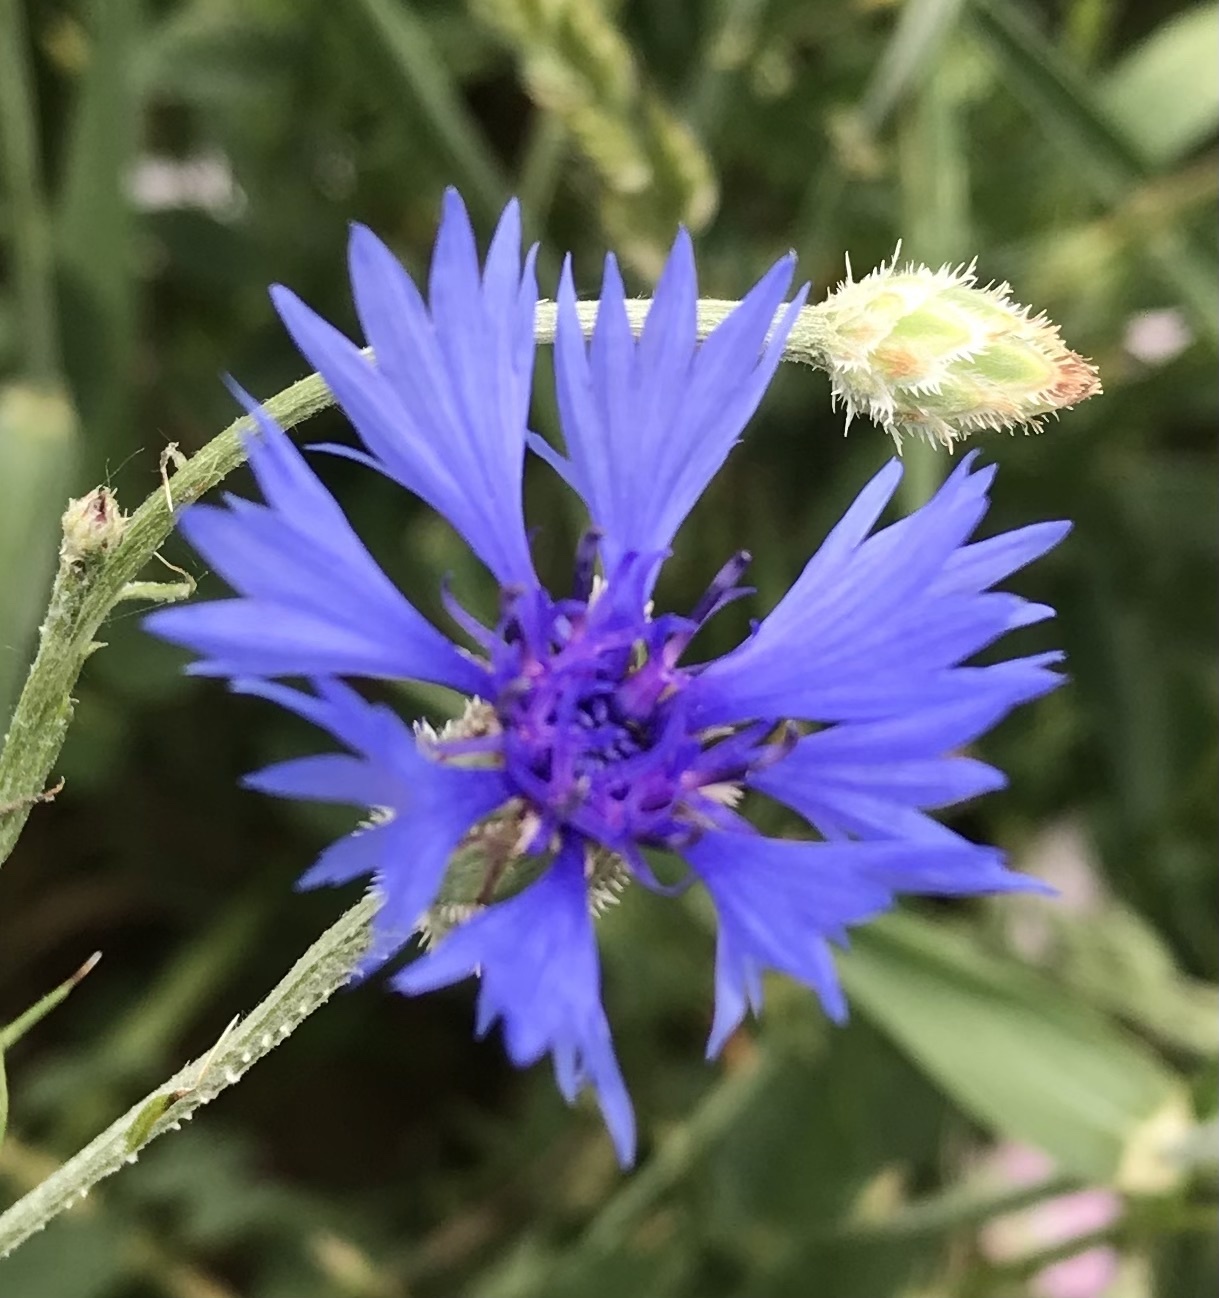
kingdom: Plantae
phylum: Tracheophyta
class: Magnoliopsida
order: Asterales
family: Asteraceae
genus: Centaurea
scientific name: Centaurea cyanus
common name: Cornflower
